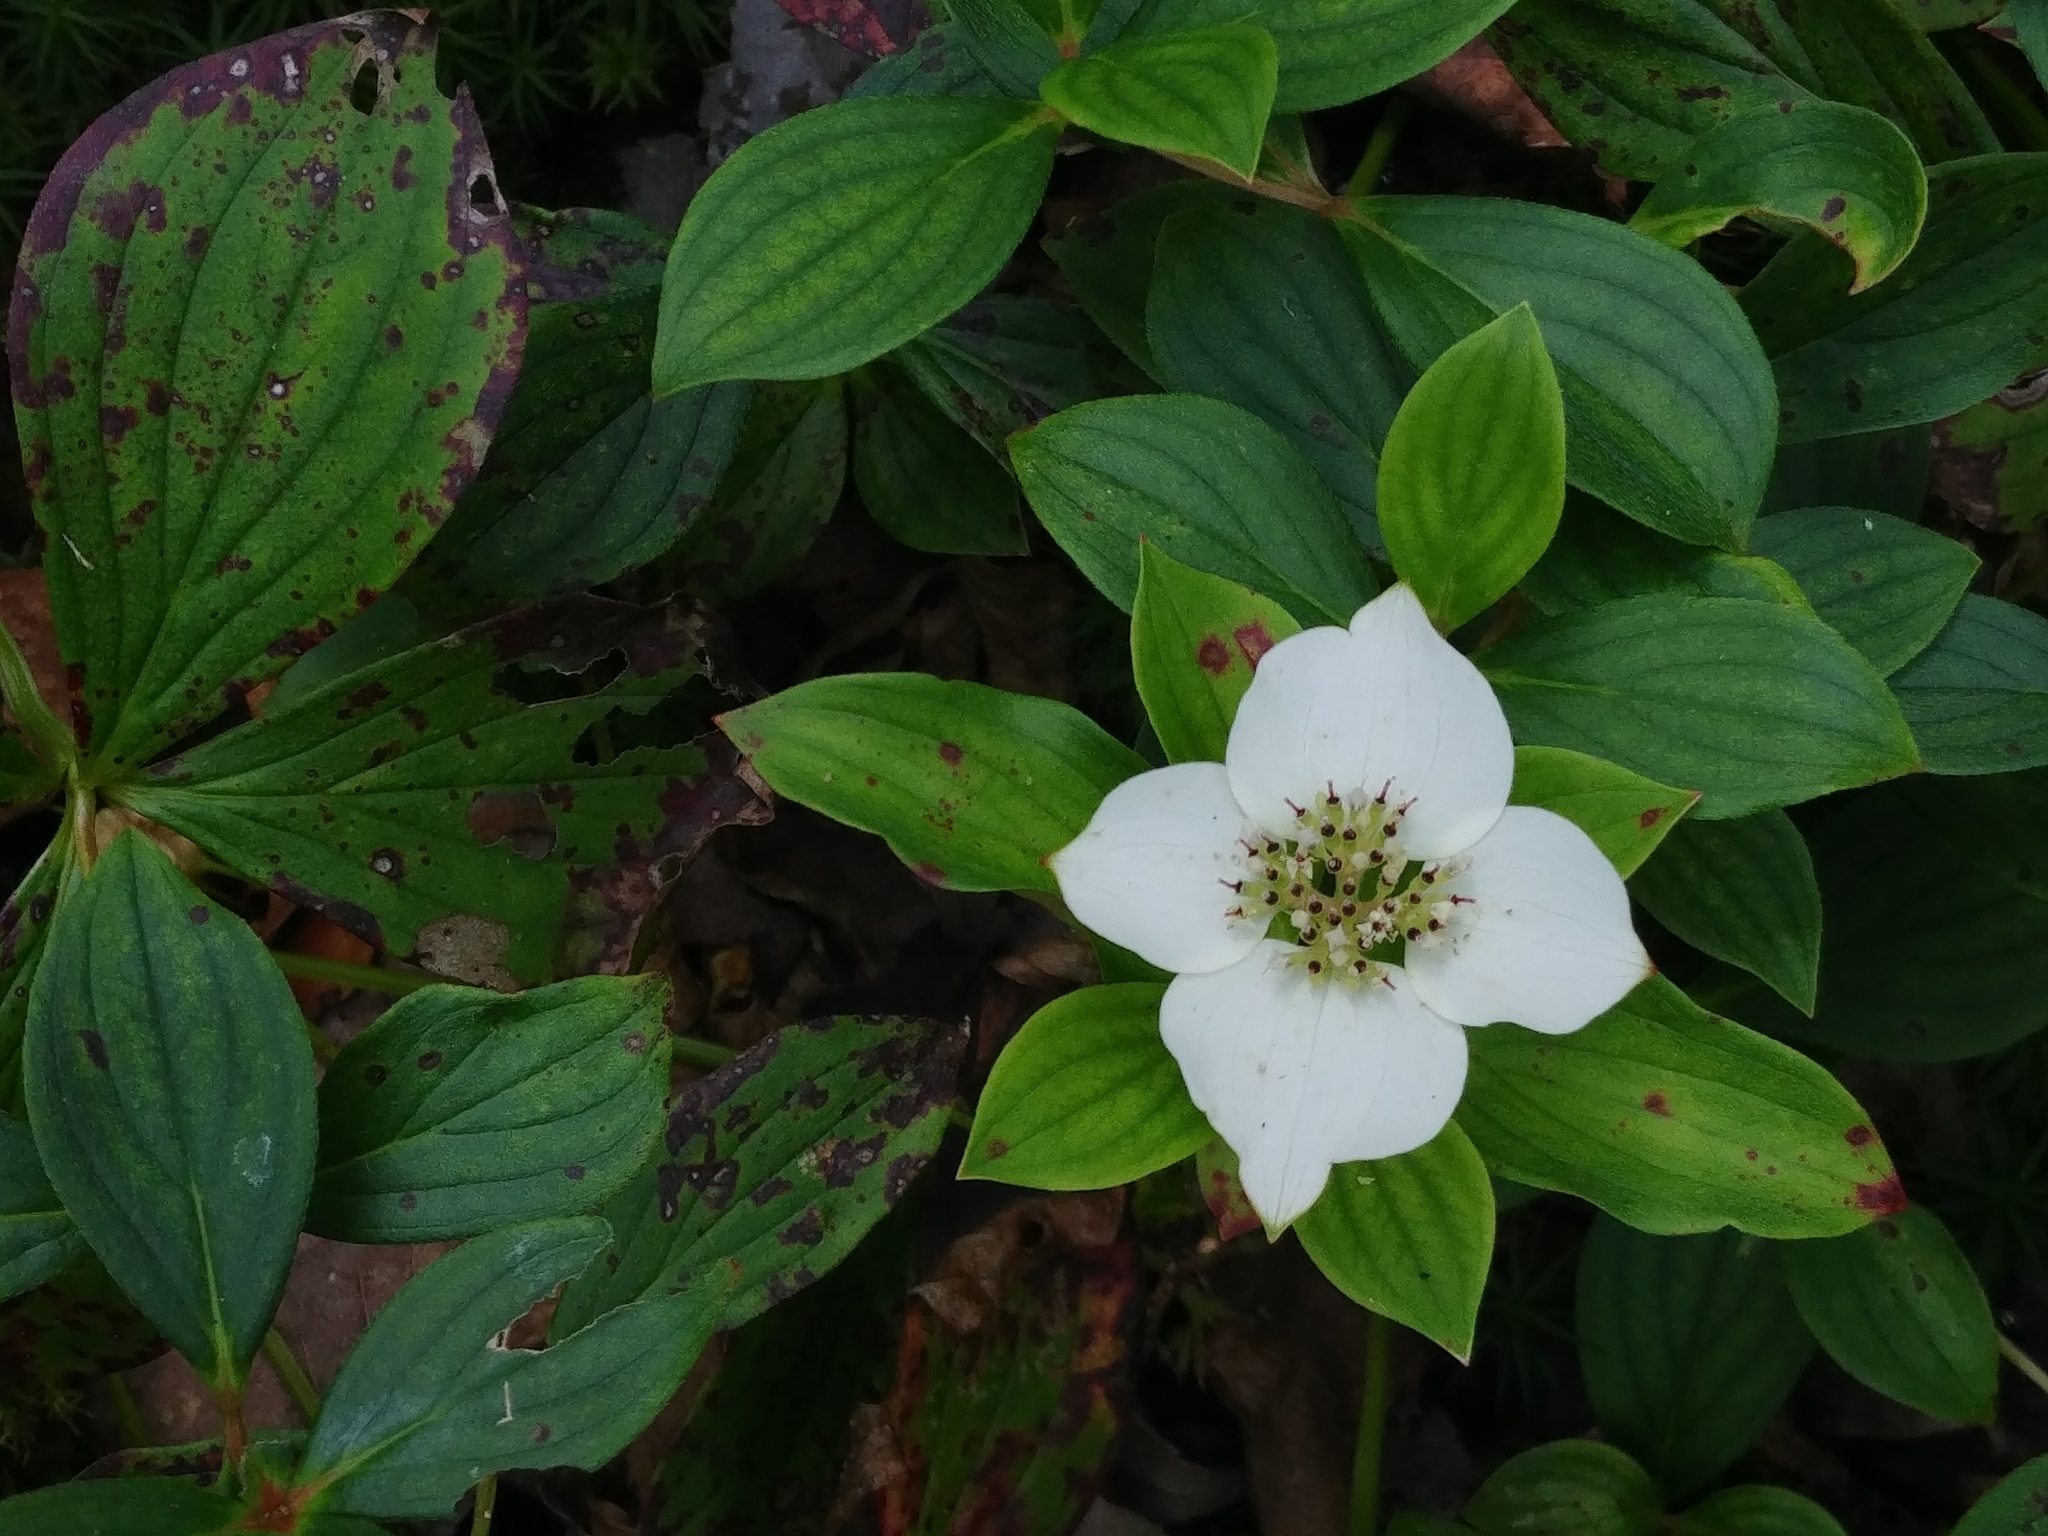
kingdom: Plantae
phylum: Tracheophyta
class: Magnoliopsida
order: Cornales
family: Cornaceae
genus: Cornus
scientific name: Cornus canadensis
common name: Creeping dogwood
